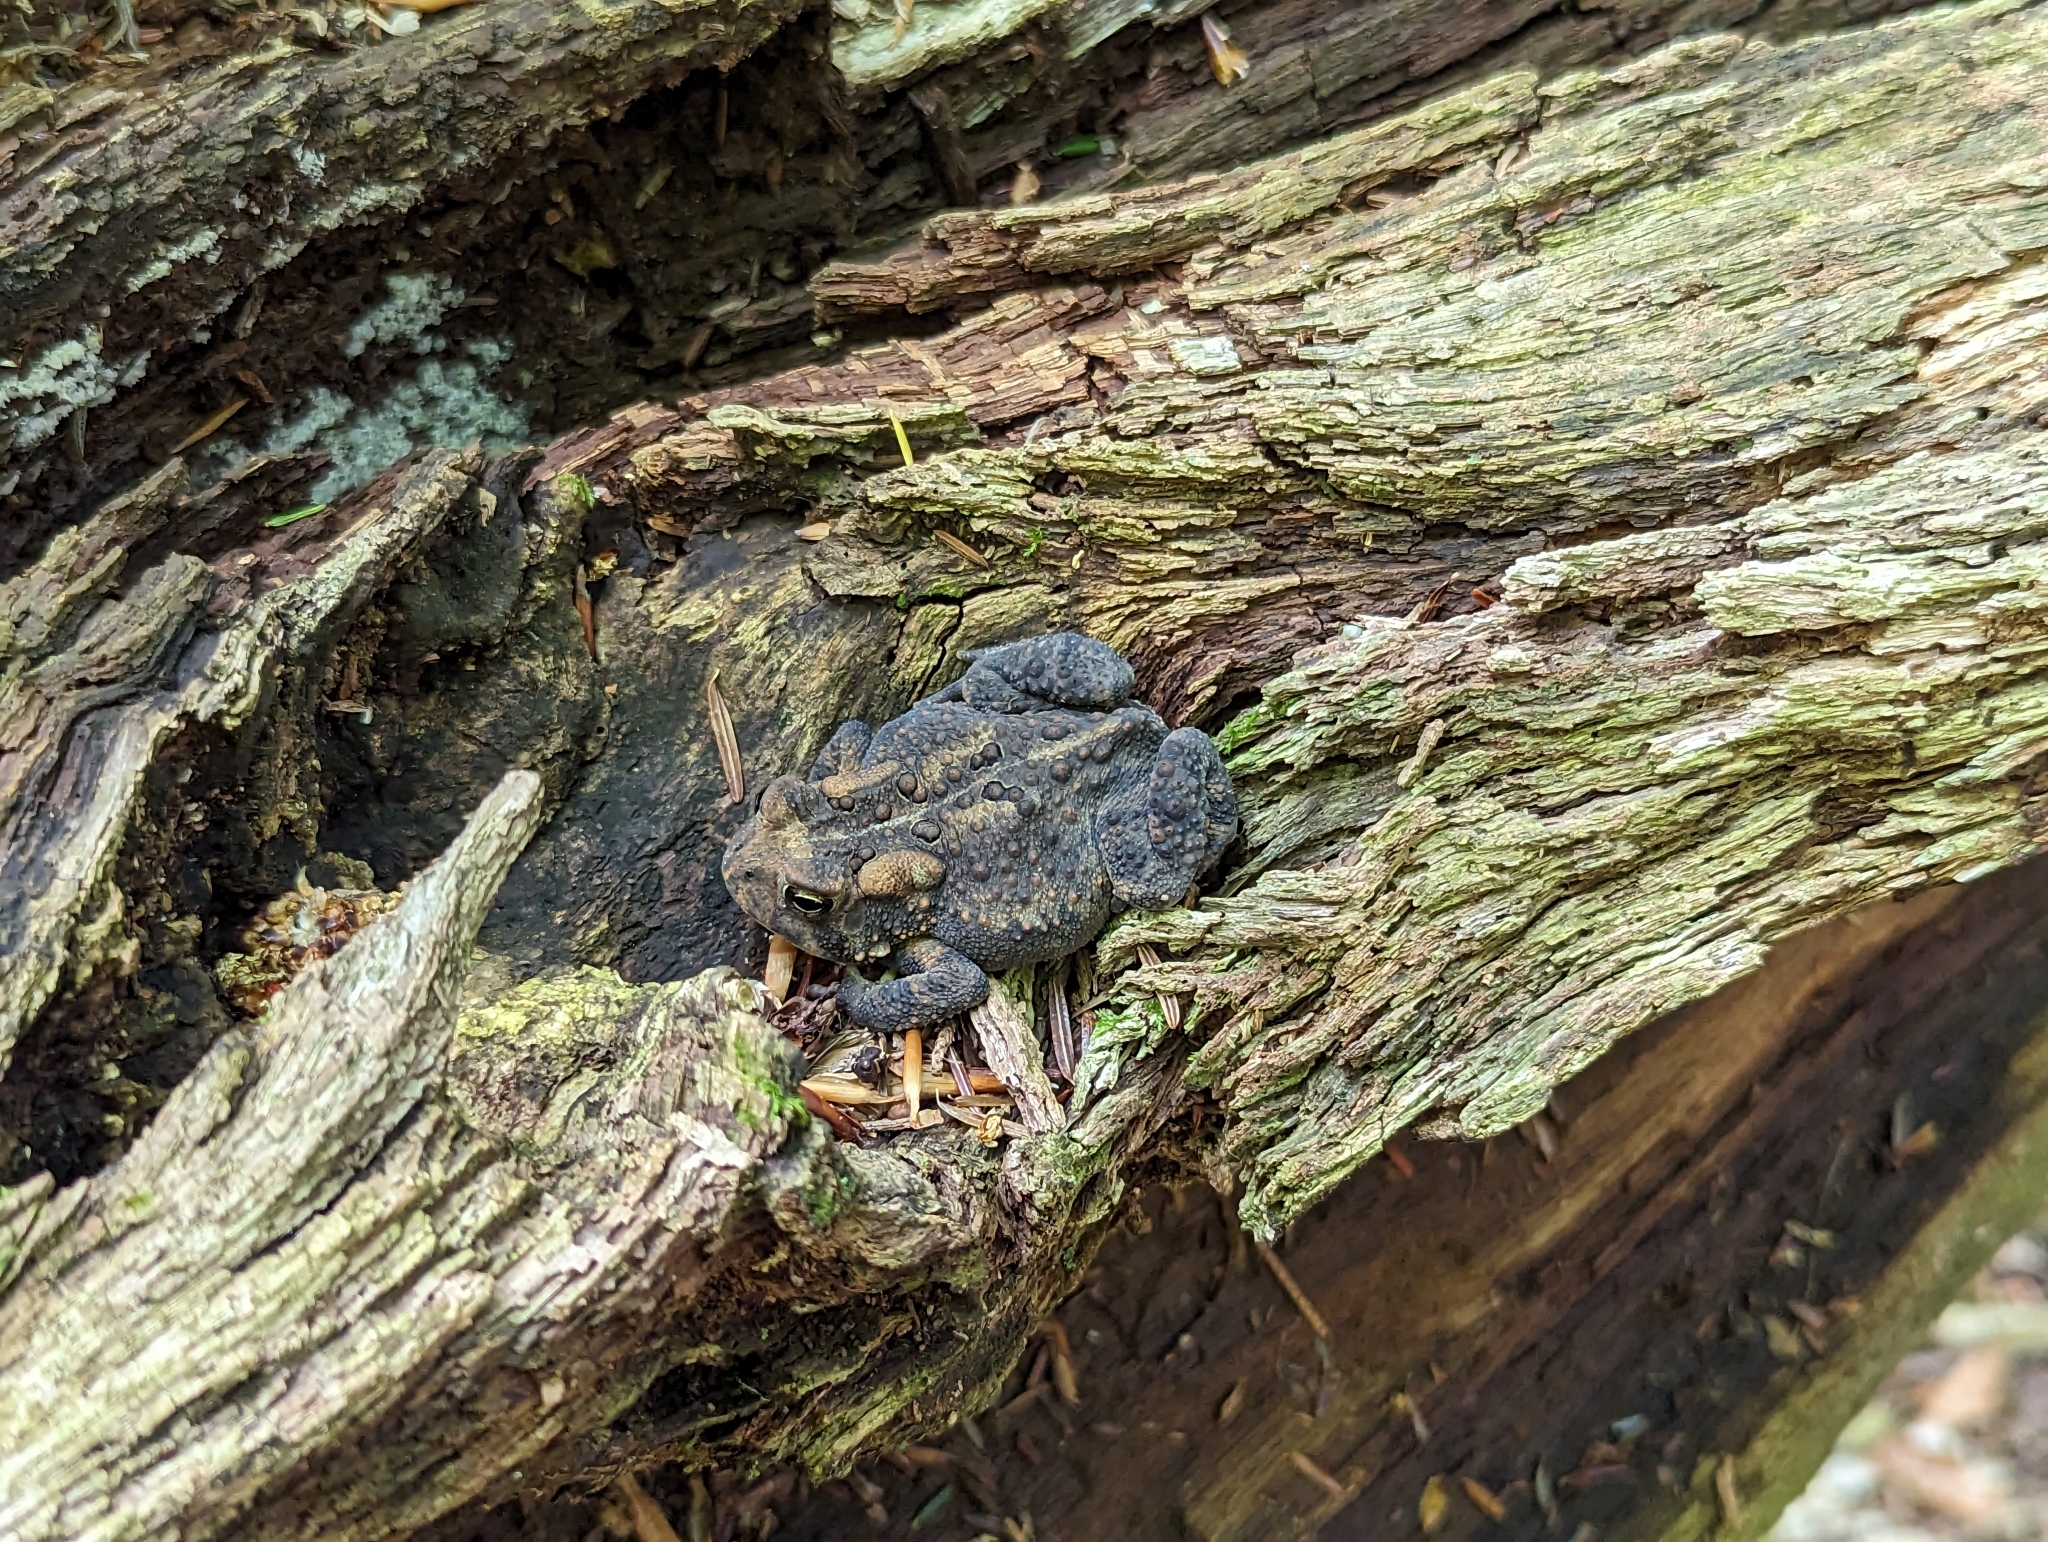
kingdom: Animalia
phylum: Chordata
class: Amphibia
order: Anura
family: Bufonidae
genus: Anaxyrus
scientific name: Anaxyrus americanus
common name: American toad
